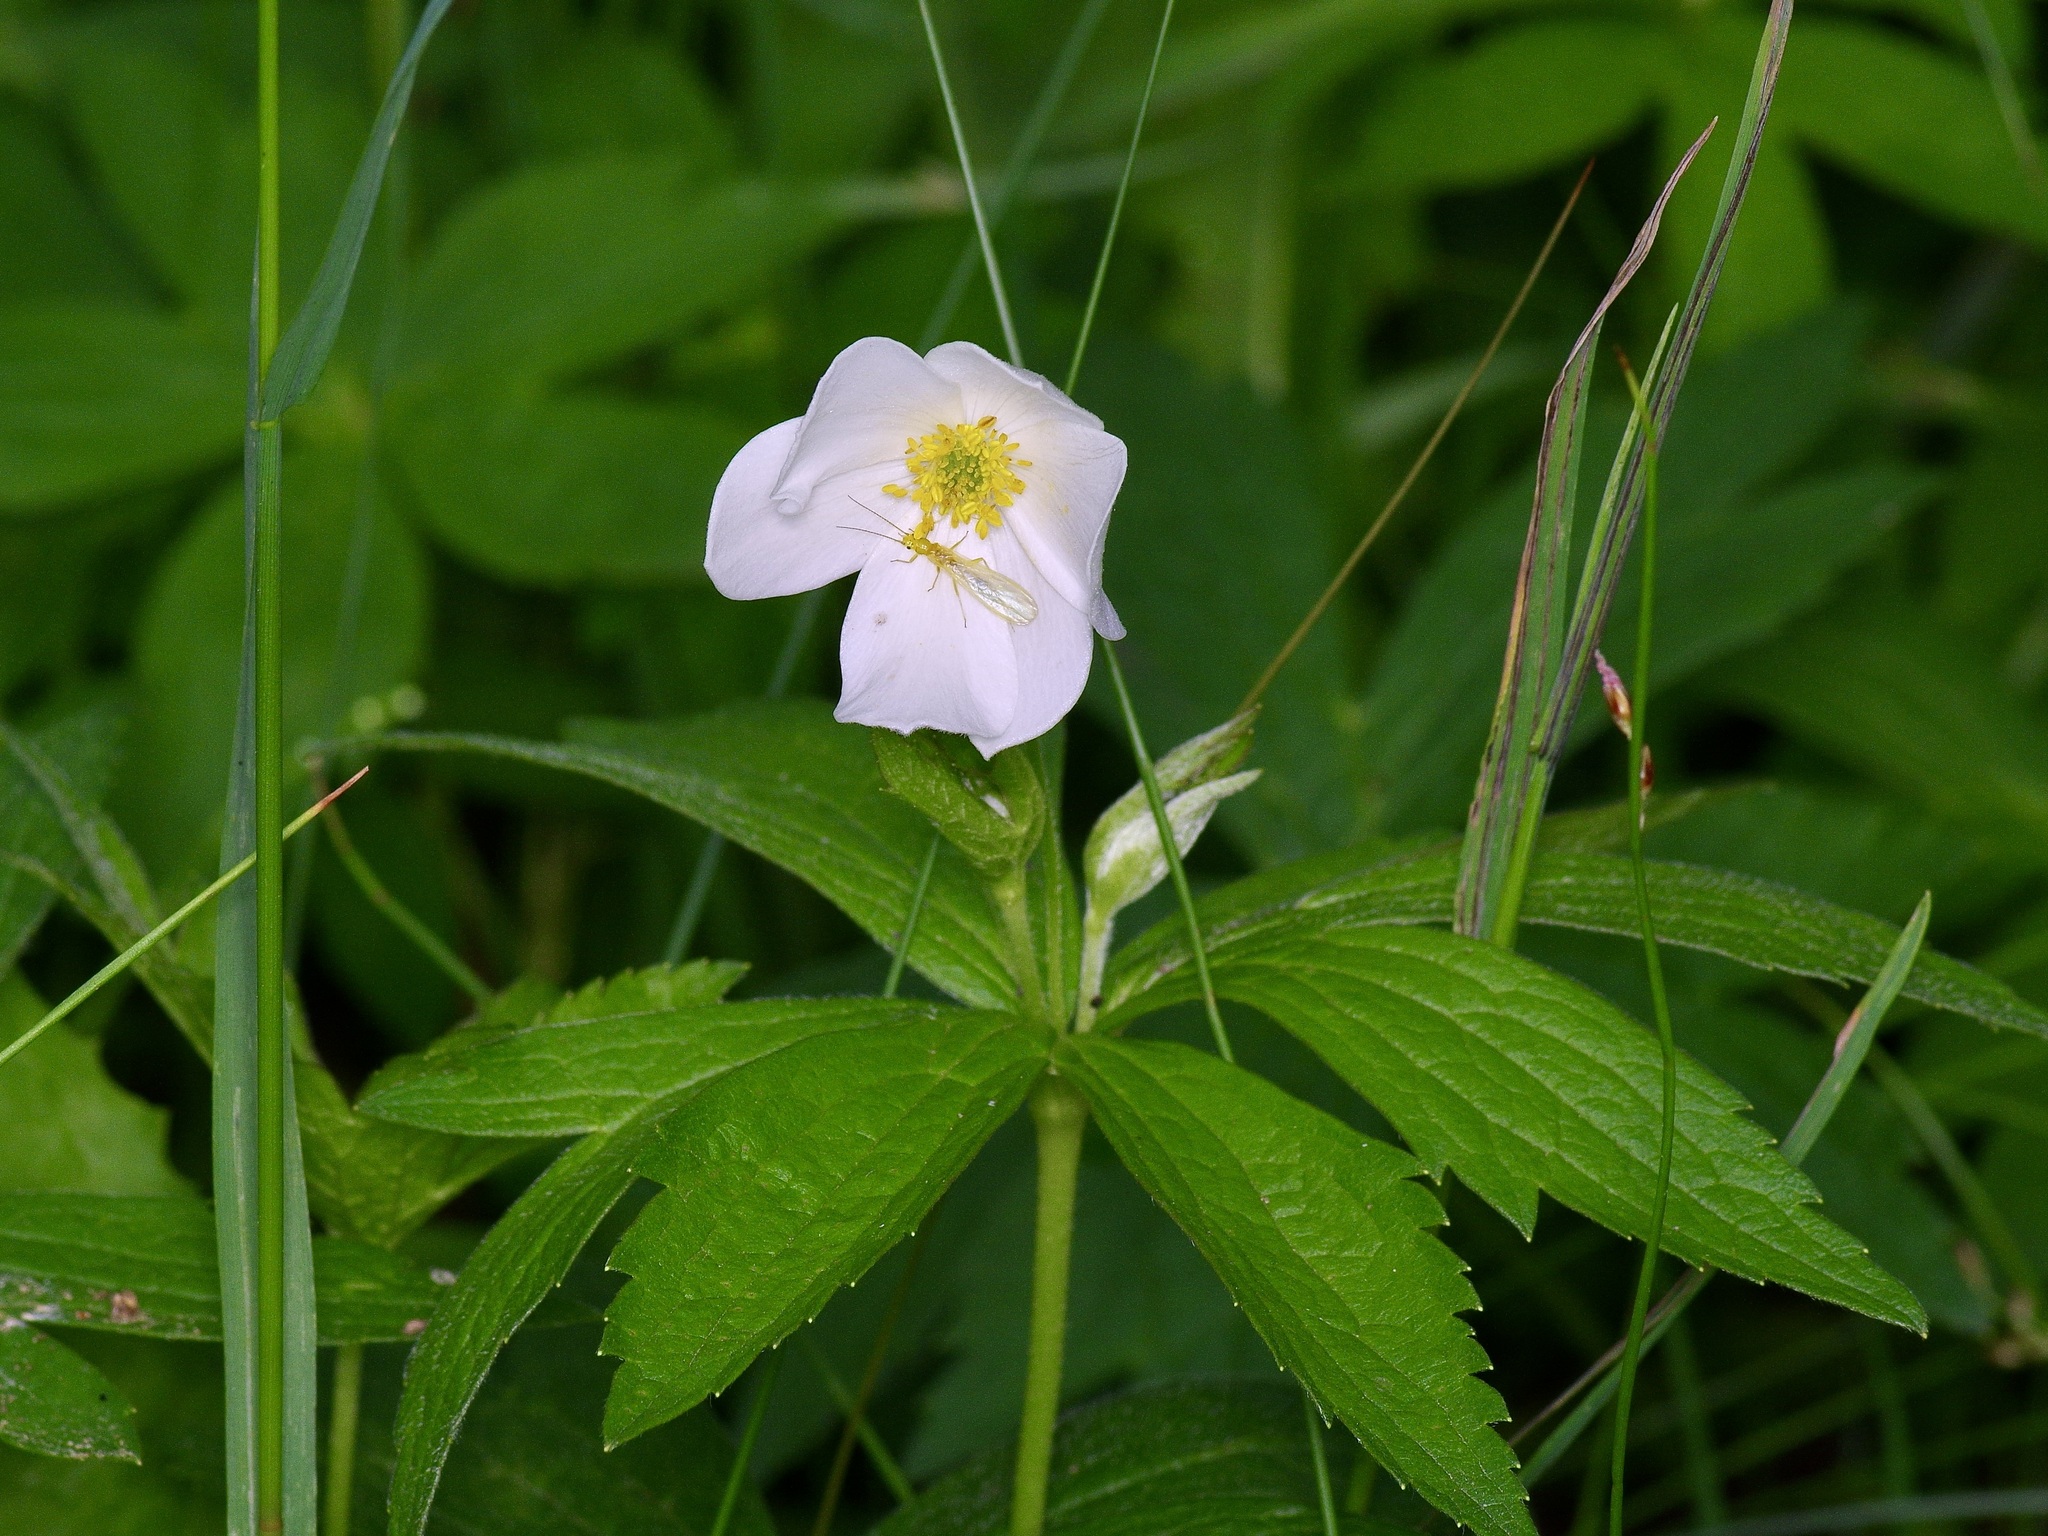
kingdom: Plantae
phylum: Tracheophyta
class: Magnoliopsida
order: Ranunculales
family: Ranunculaceae
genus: Anemonastrum
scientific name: Anemonastrum canadense
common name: Canada anemone
